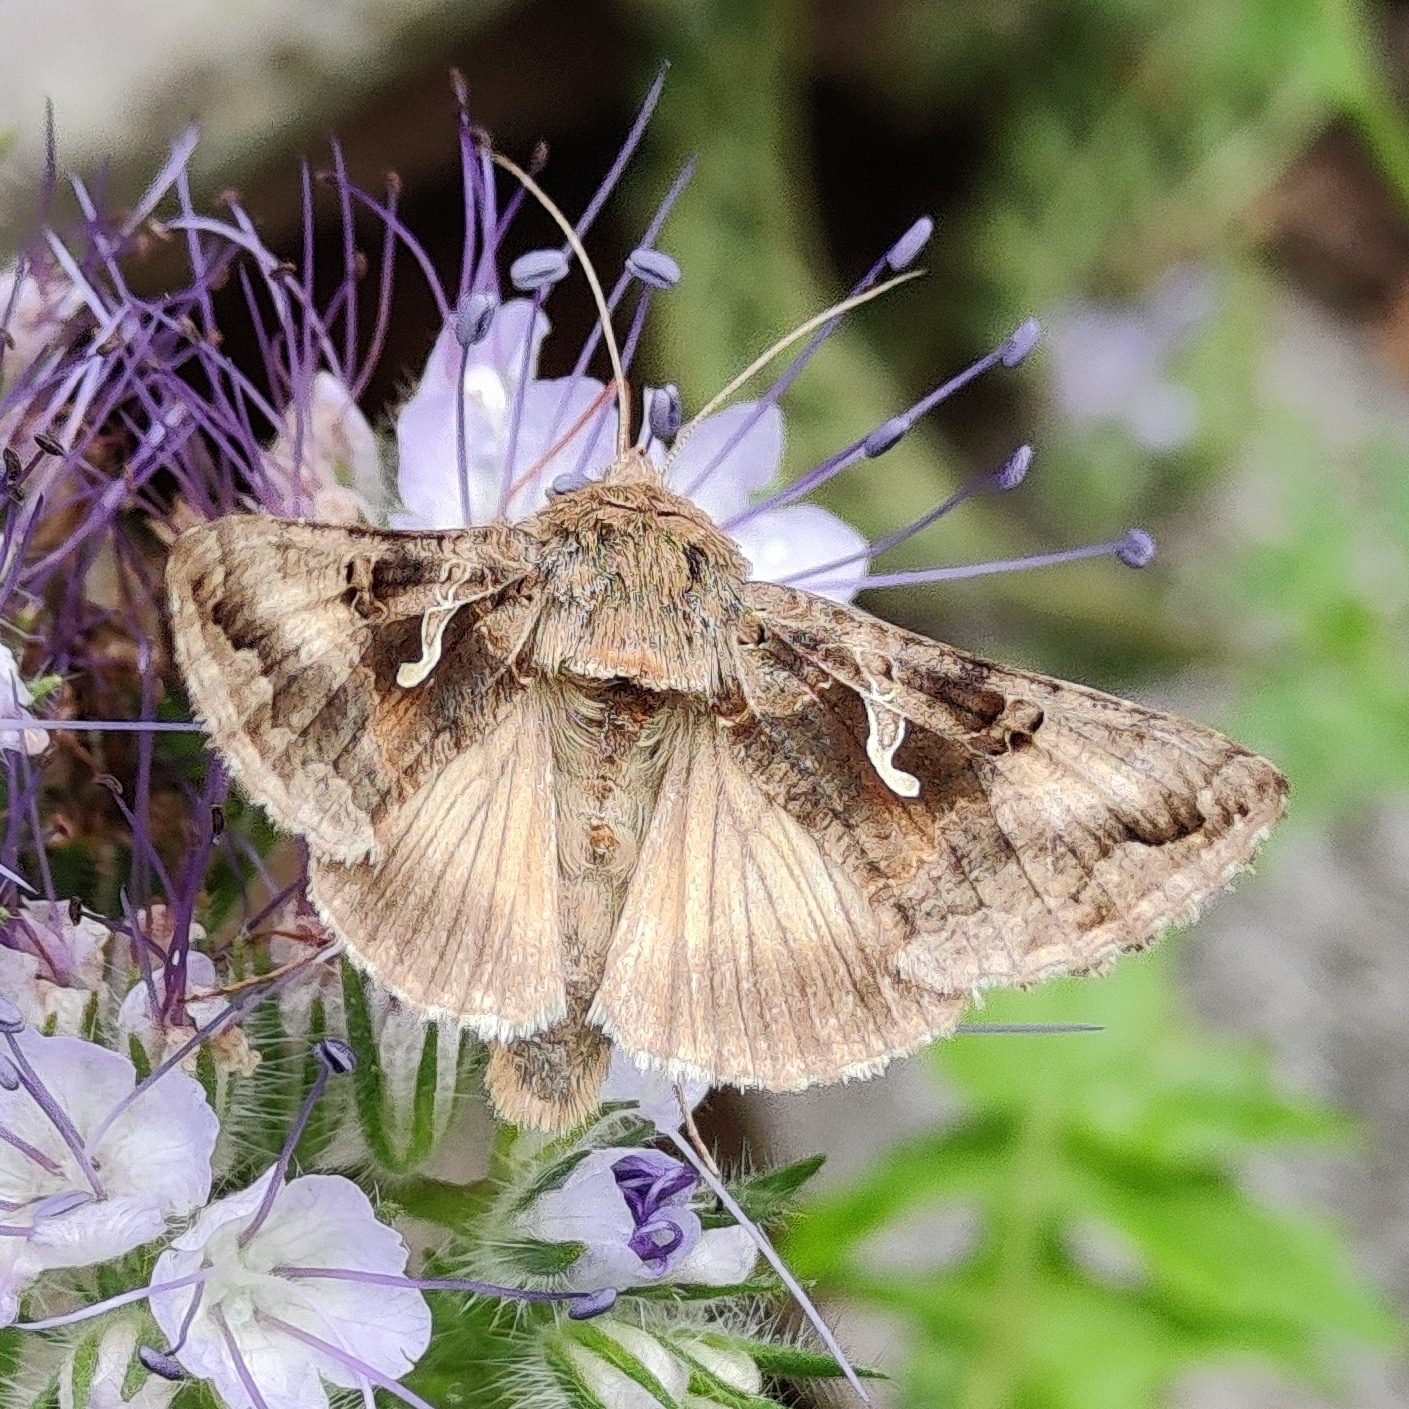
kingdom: Animalia
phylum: Arthropoda
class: Insecta
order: Lepidoptera
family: Noctuidae
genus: Autographa
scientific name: Autographa gamma
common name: Silver y
